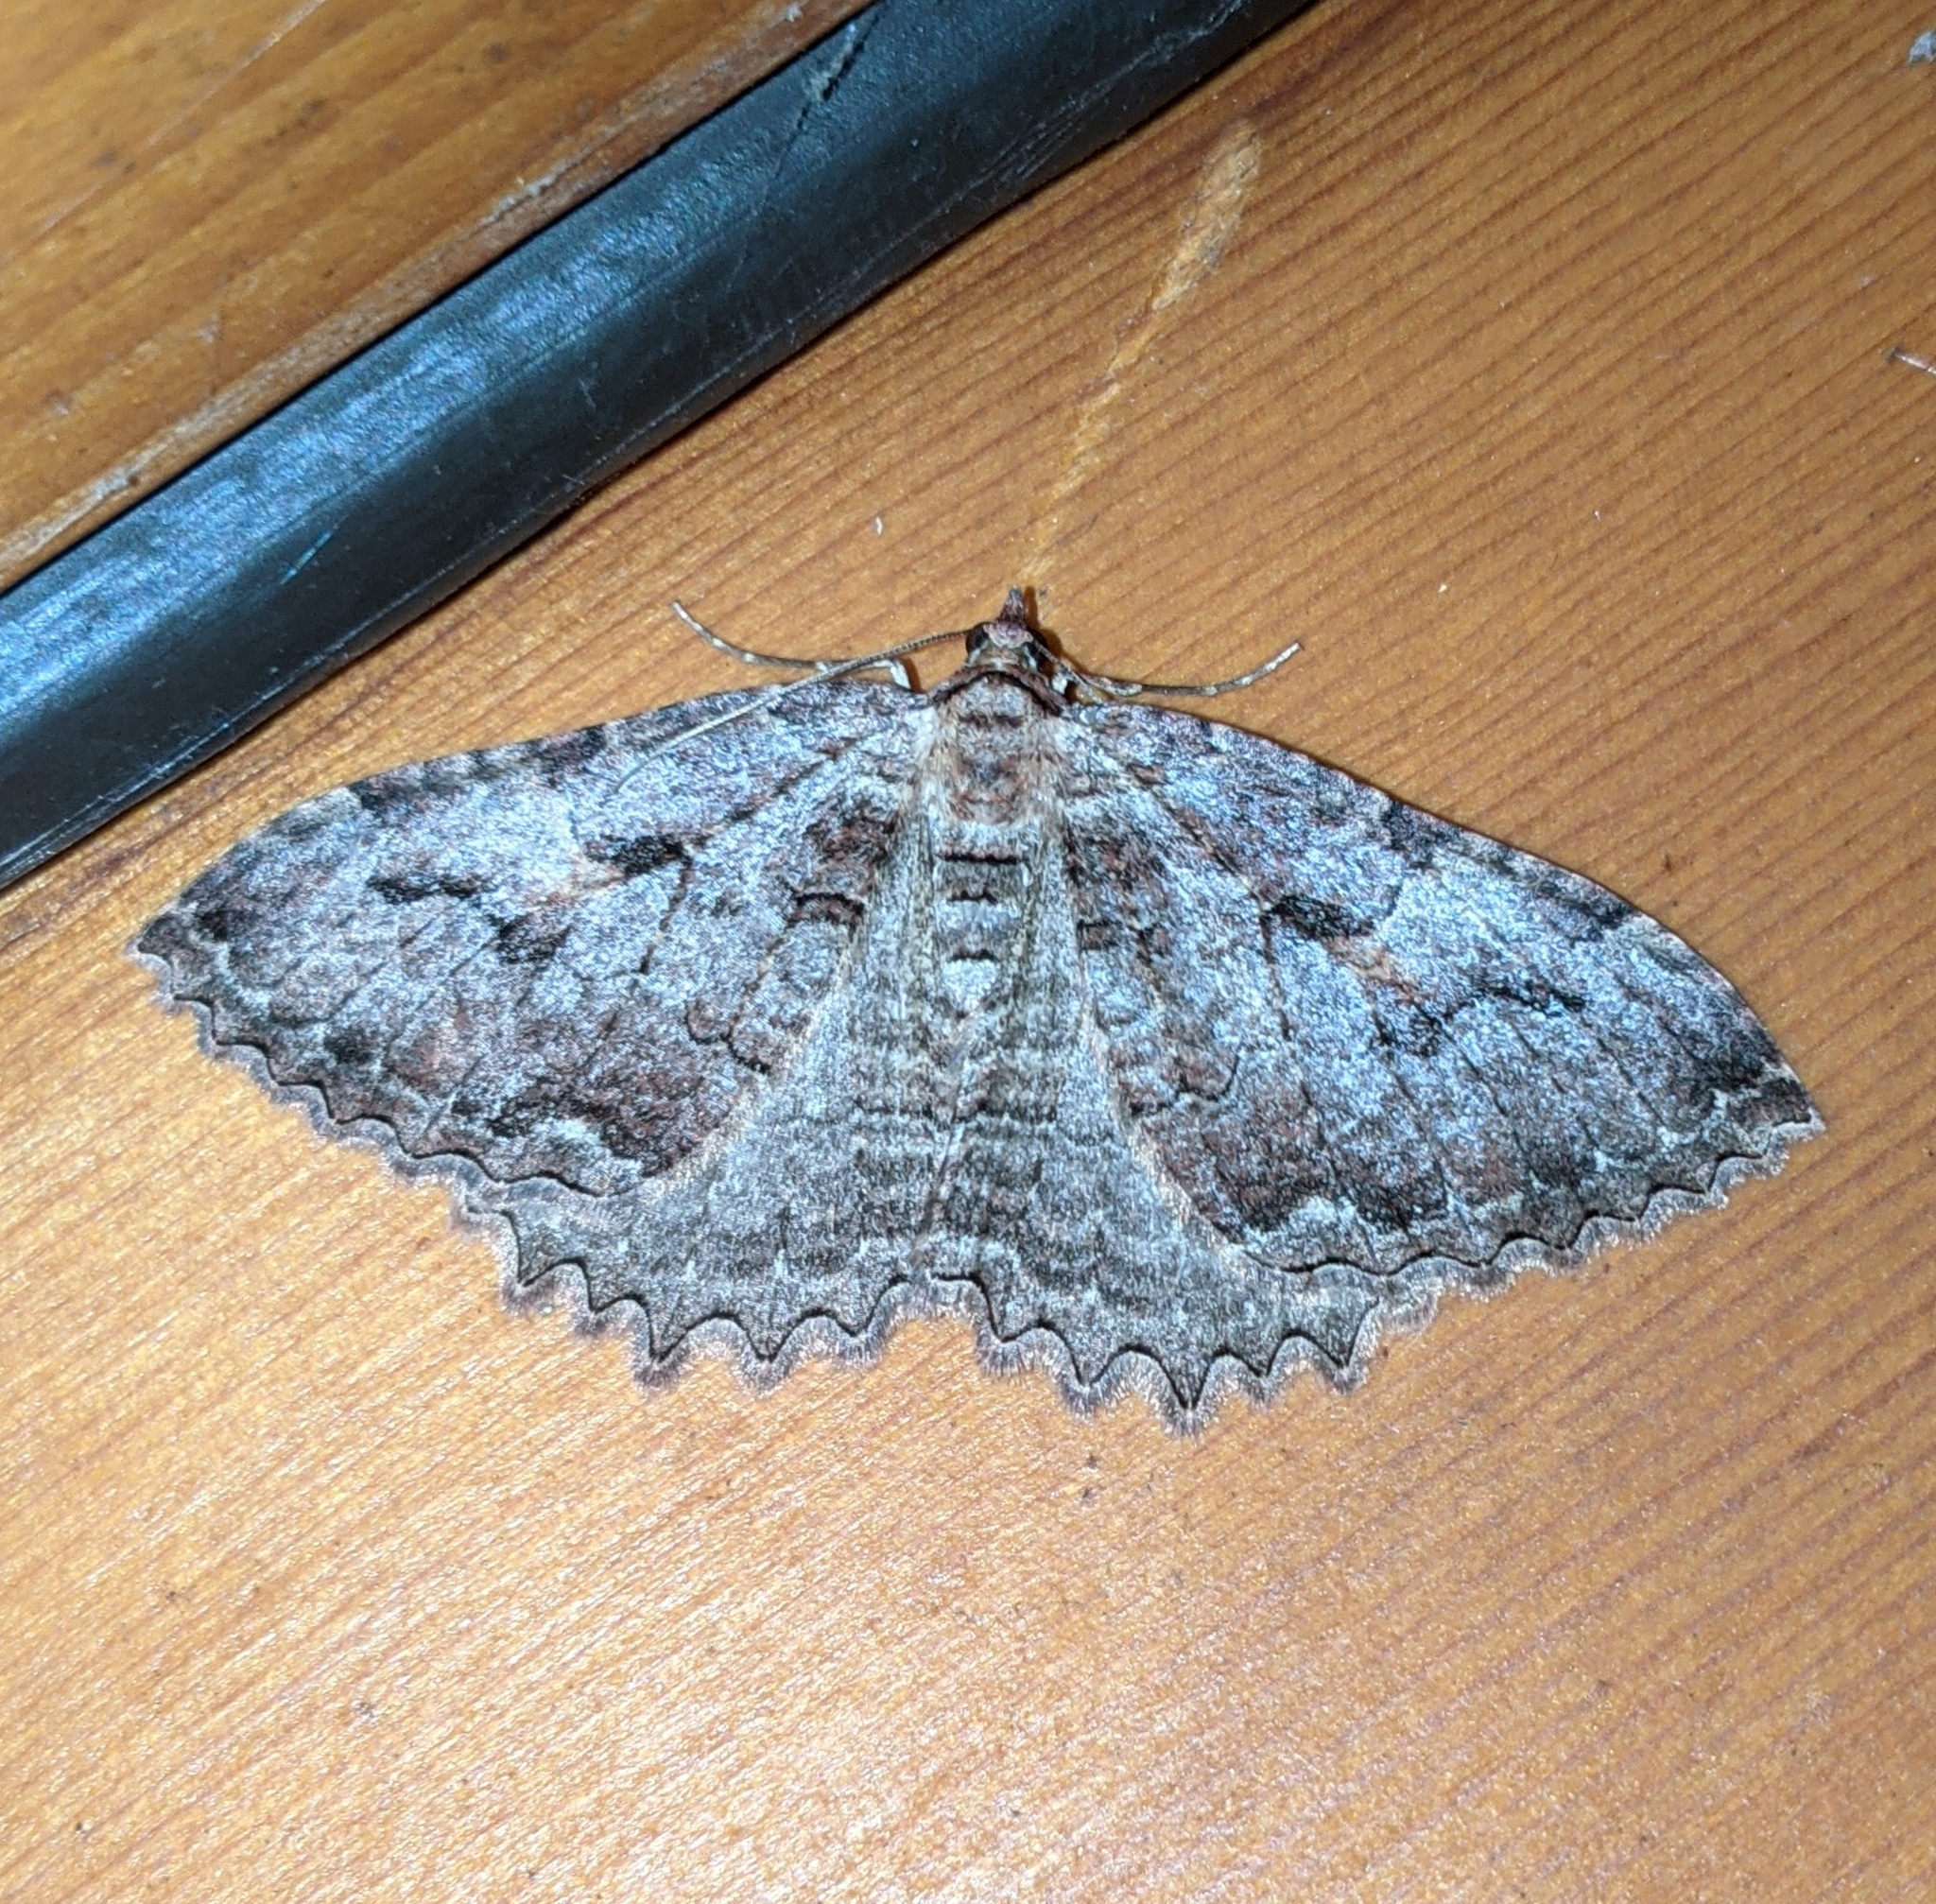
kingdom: Animalia
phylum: Arthropoda
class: Insecta
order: Lepidoptera
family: Geometridae
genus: Triphosa
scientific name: Triphosa haesitata
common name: Tissue moth
